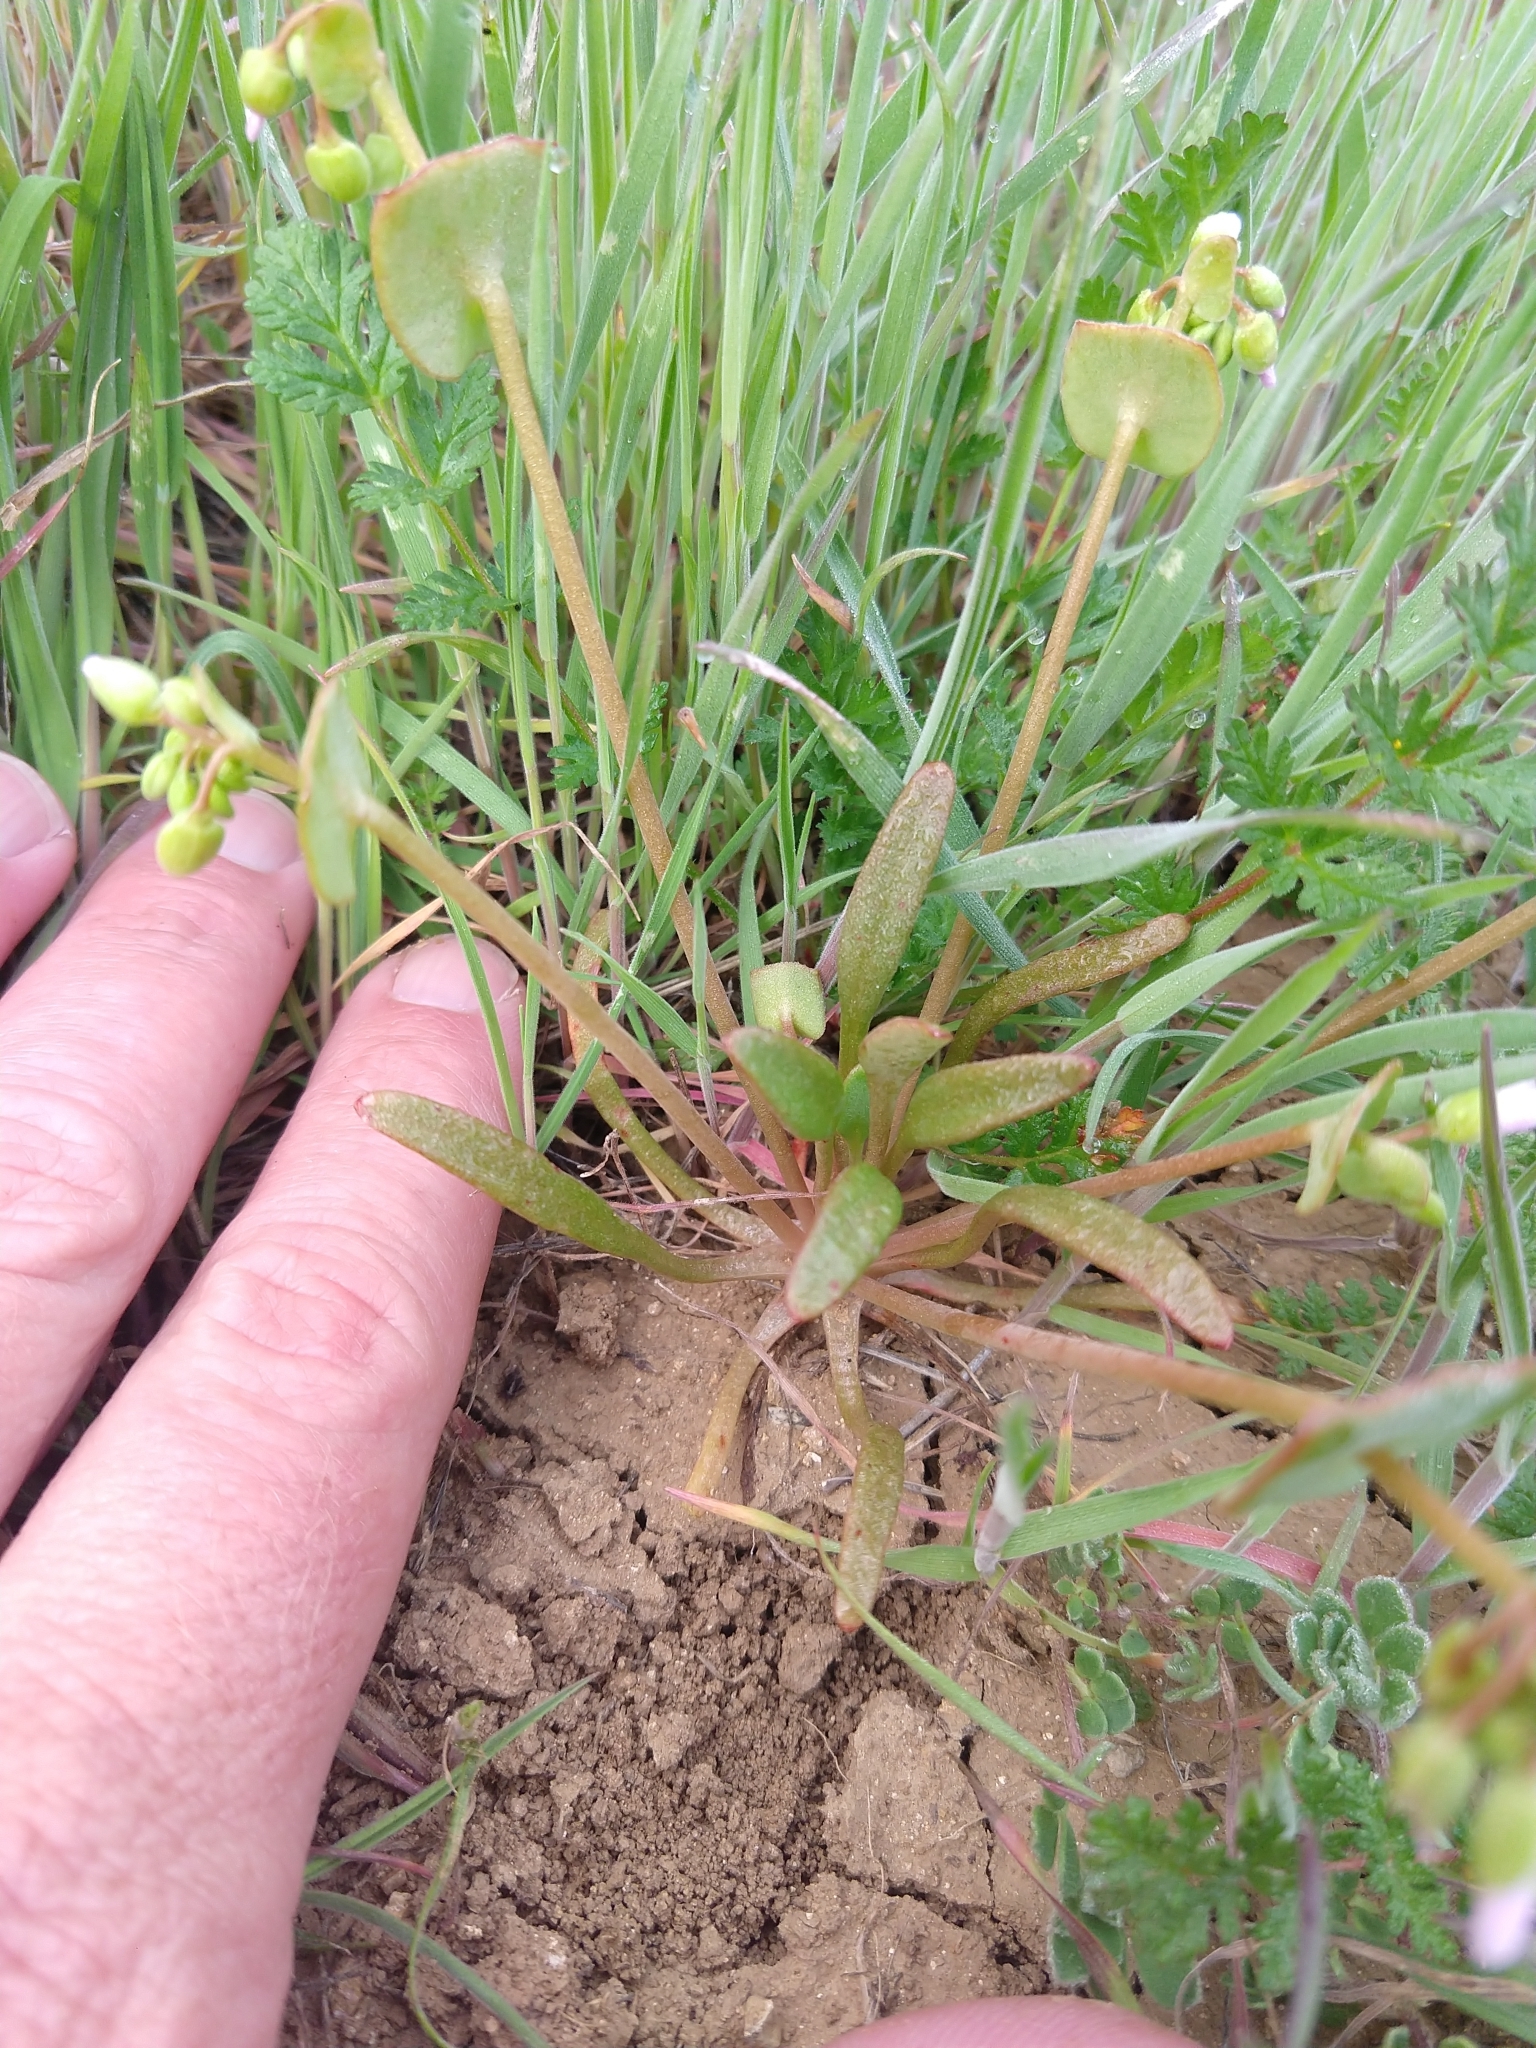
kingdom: Plantae
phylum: Tracheophyta
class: Magnoliopsida
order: Caryophyllales
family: Montiaceae
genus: Claytonia
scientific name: Claytonia parviflora
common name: Indian-lettuce
